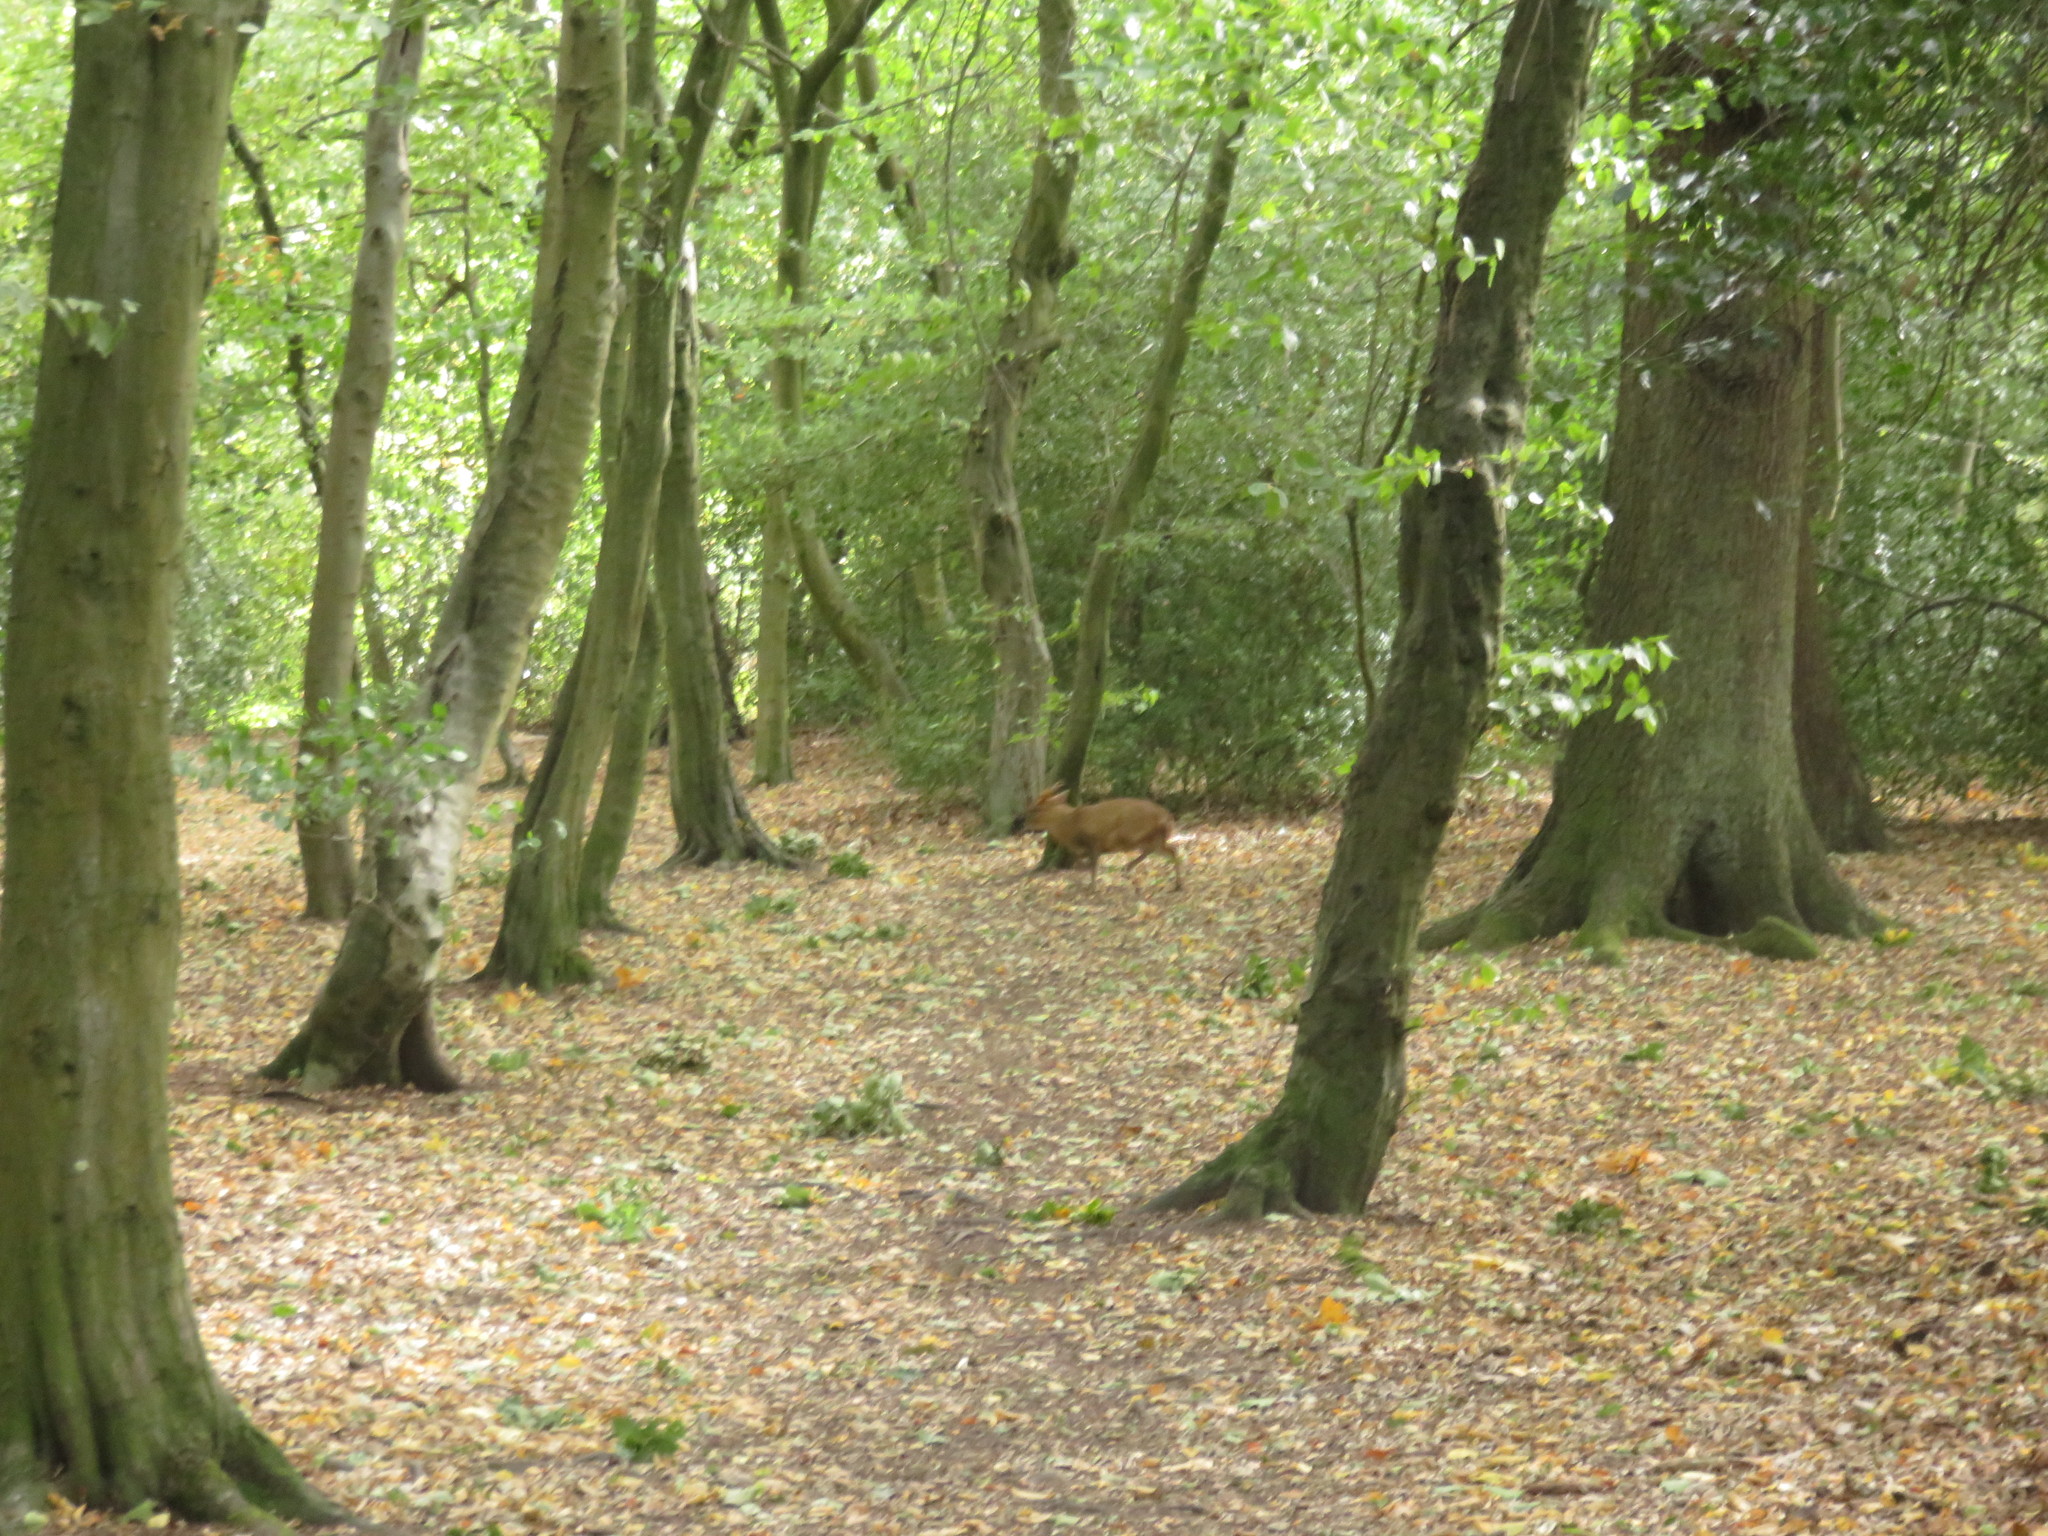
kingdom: Animalia
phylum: Chordata
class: Mammalia
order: Artiodactyla
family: Cervidae
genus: Muntiacus
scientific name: Muntiacus reevesi
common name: Reeves' muntjac
